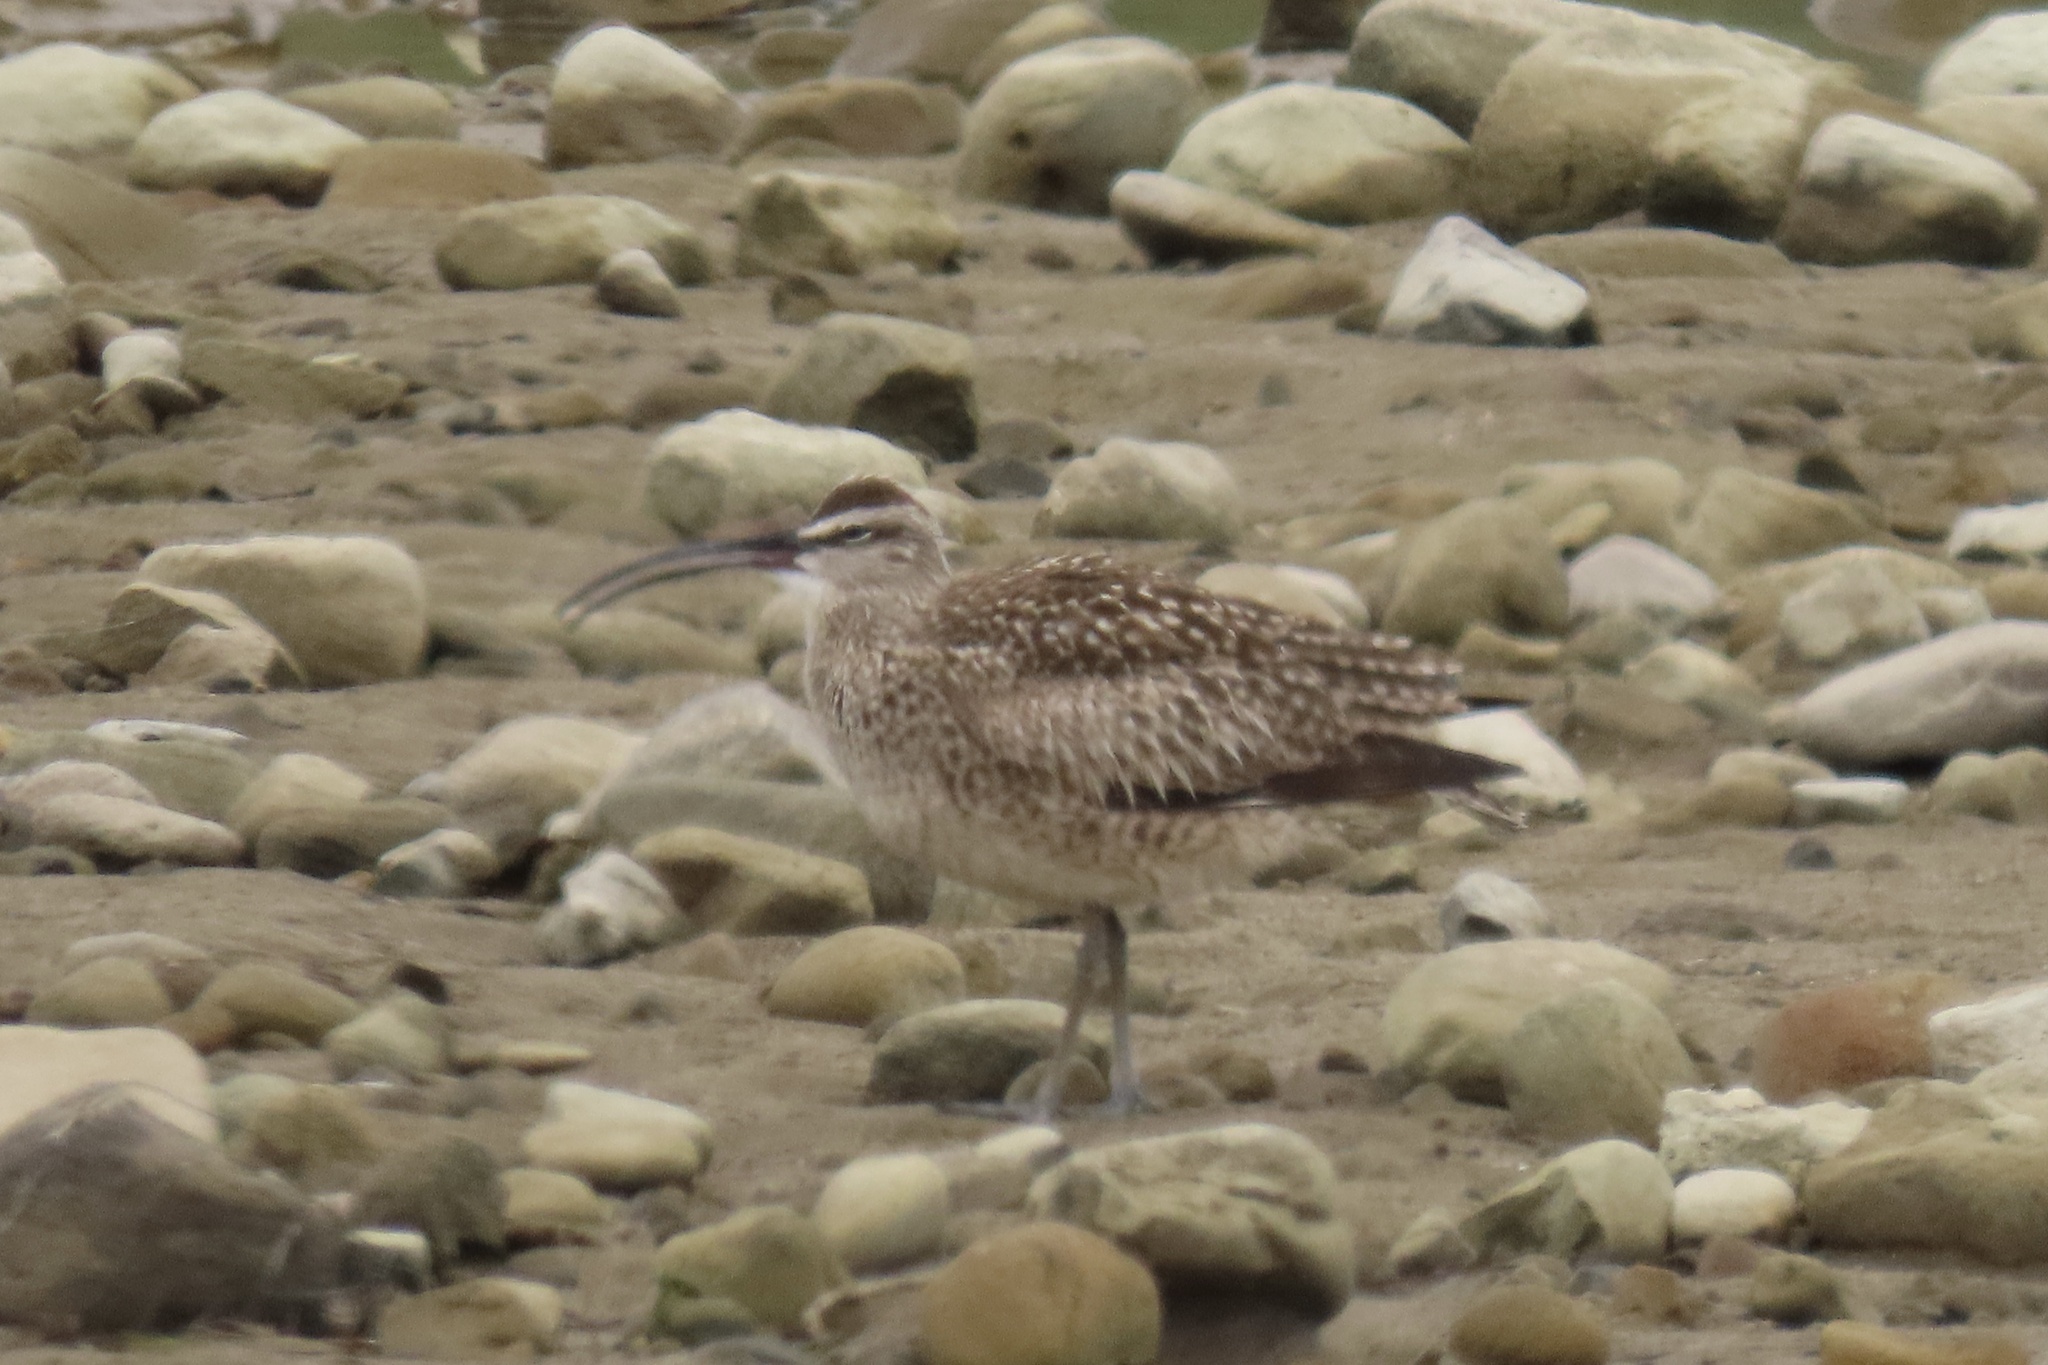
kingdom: Animalia
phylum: Chordata
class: Aves
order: Charadriiformes
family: Scolopacidae
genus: Numenius
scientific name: Numenius phaeopus
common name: Whimbrel
